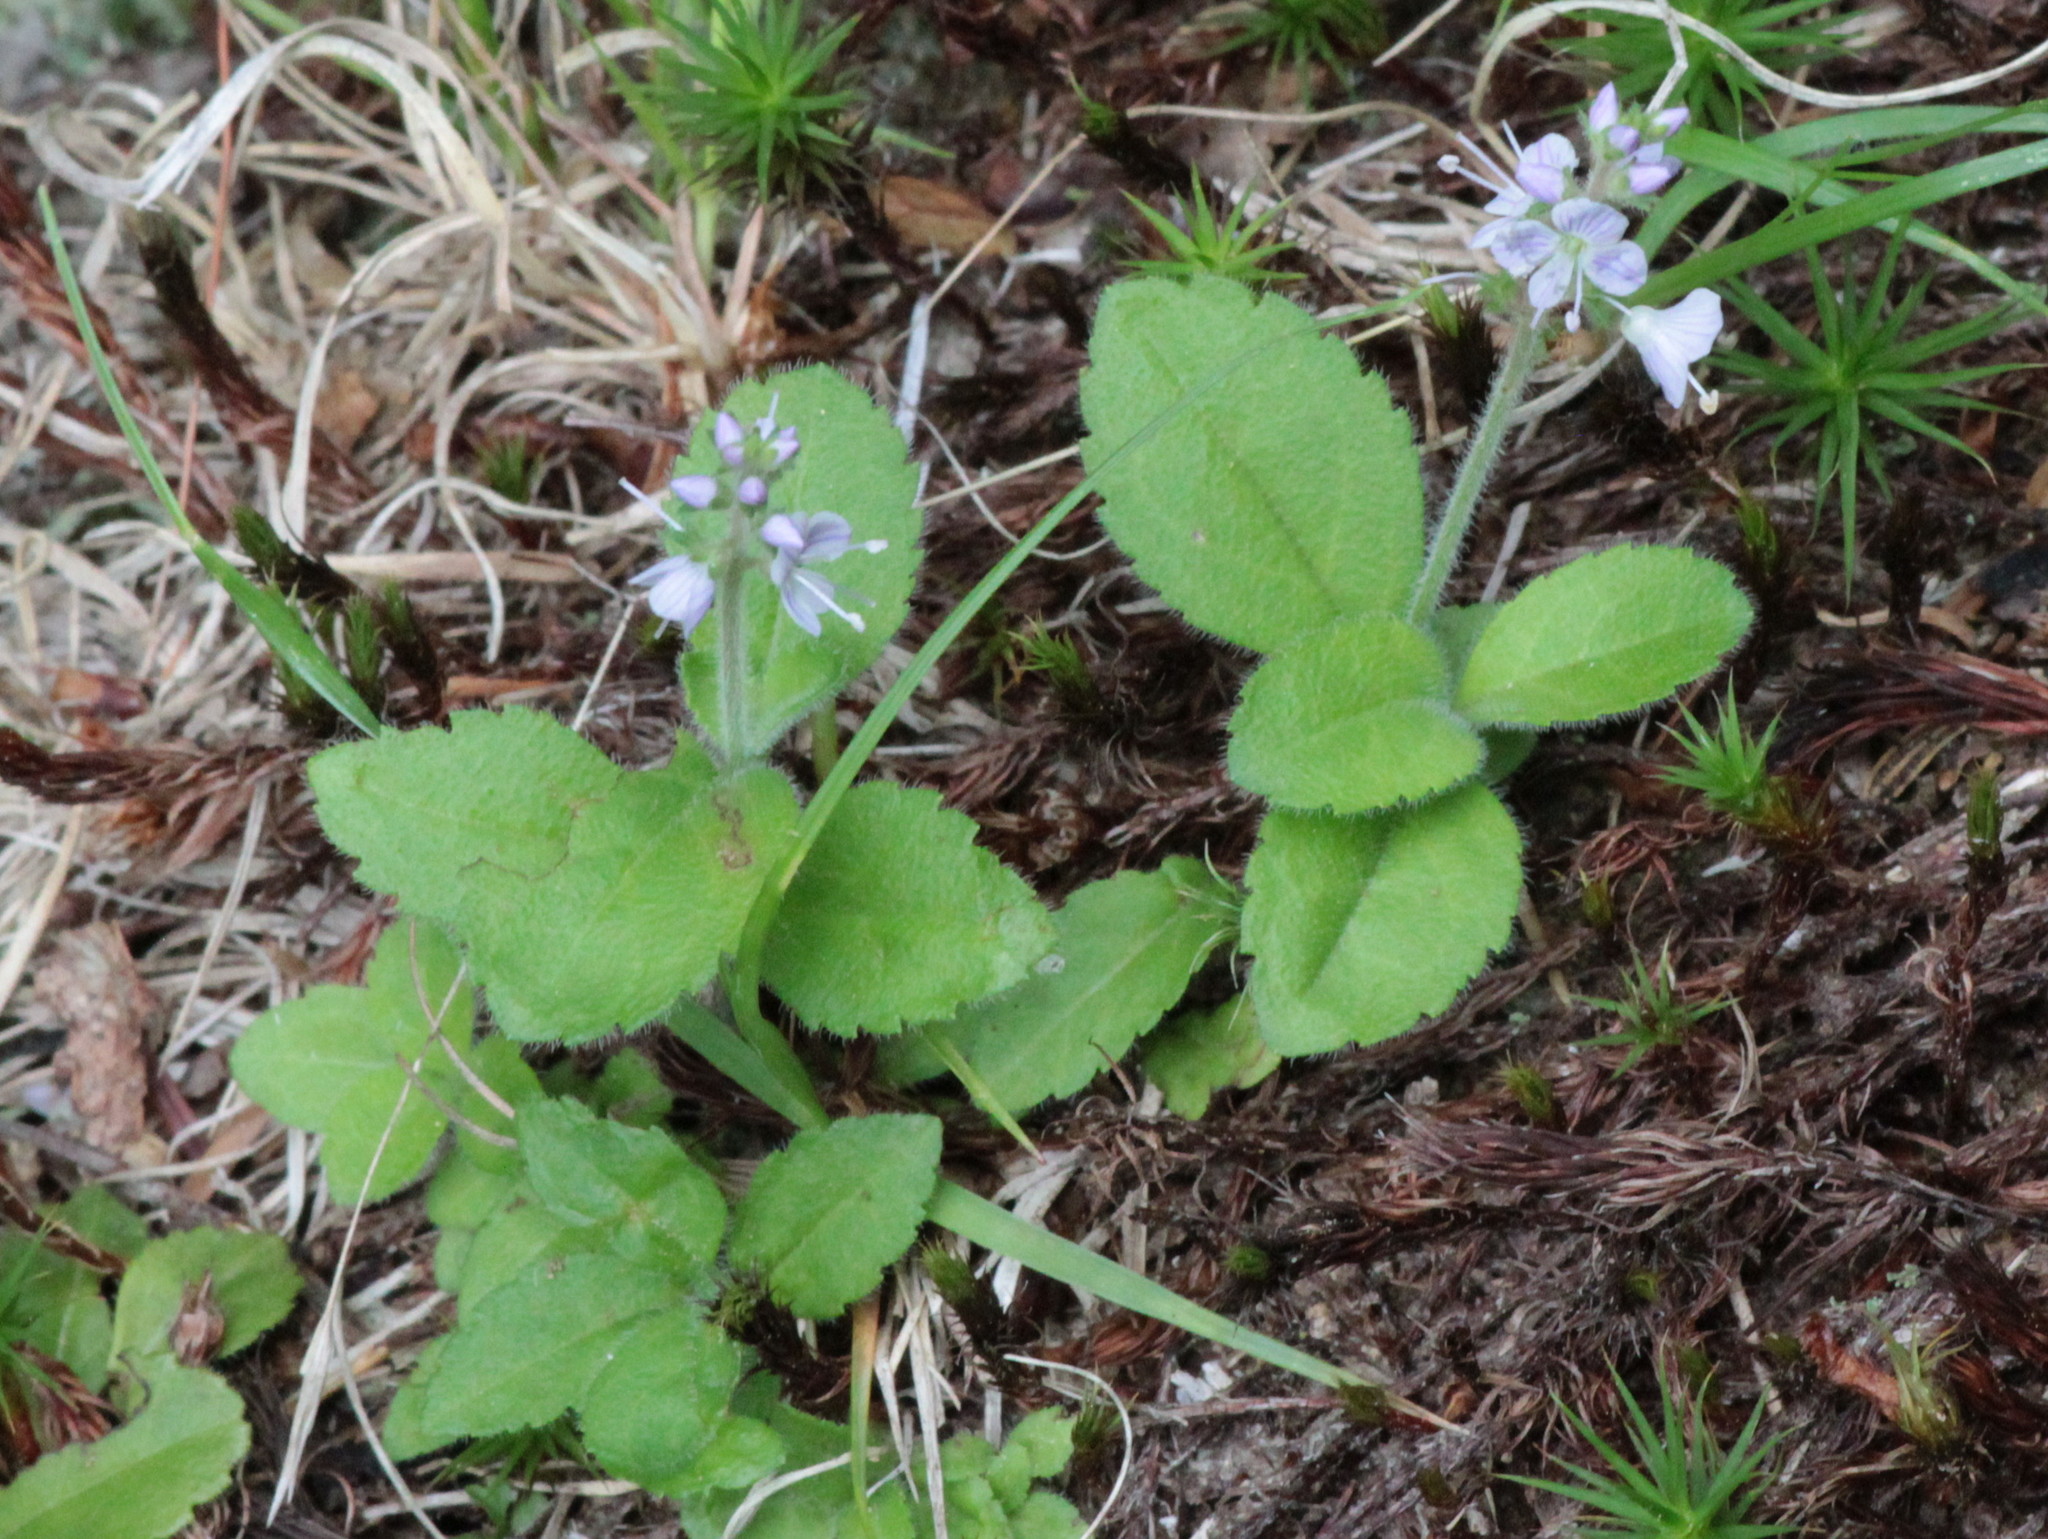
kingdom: Plantae
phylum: Tracheophyta
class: Magnoliopsida
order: Lamiales
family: Plantaginaceae
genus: Veronica
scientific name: Veronica officinalis
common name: Common speedwell
